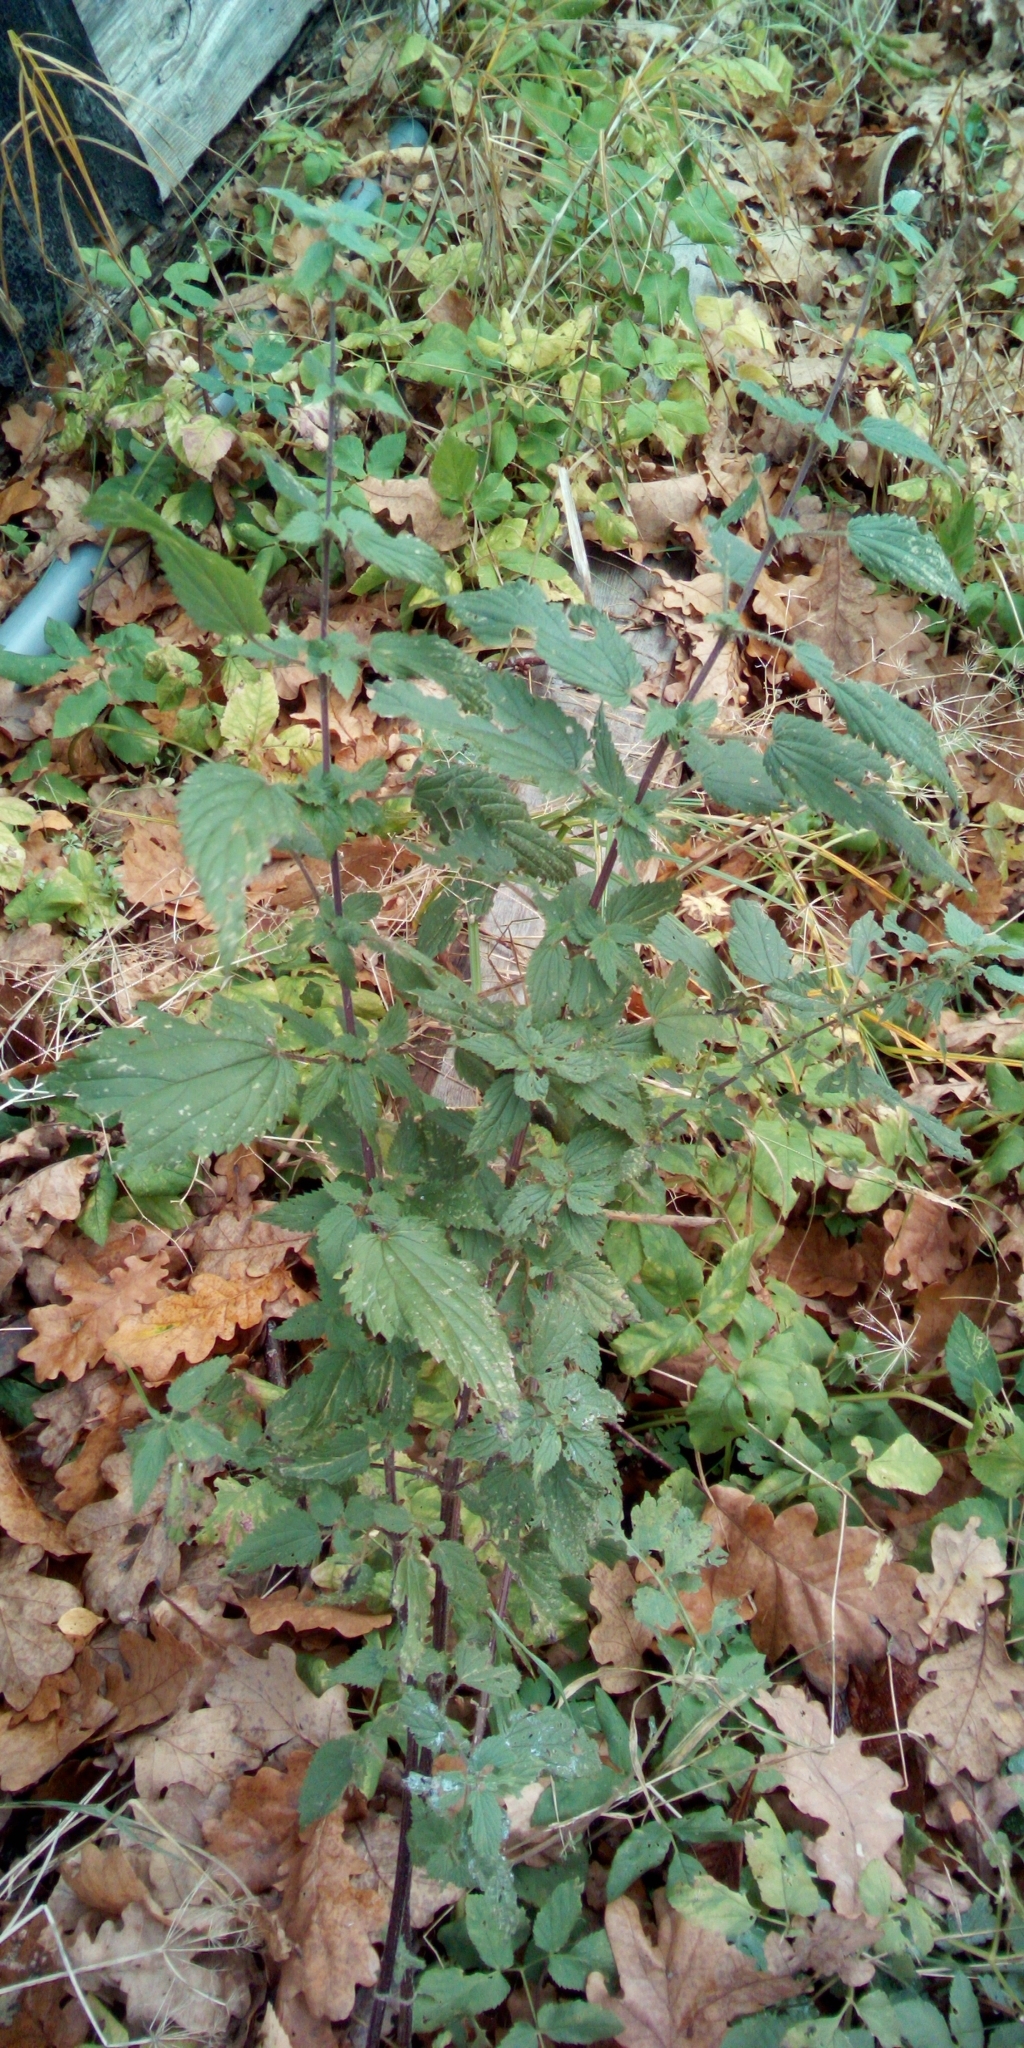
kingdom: Plantae
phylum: Tracheophyta
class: Magnoliopsida
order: Rosales
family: Urticaceae
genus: Urtica
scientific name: Urtica dioica
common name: Common nettle
